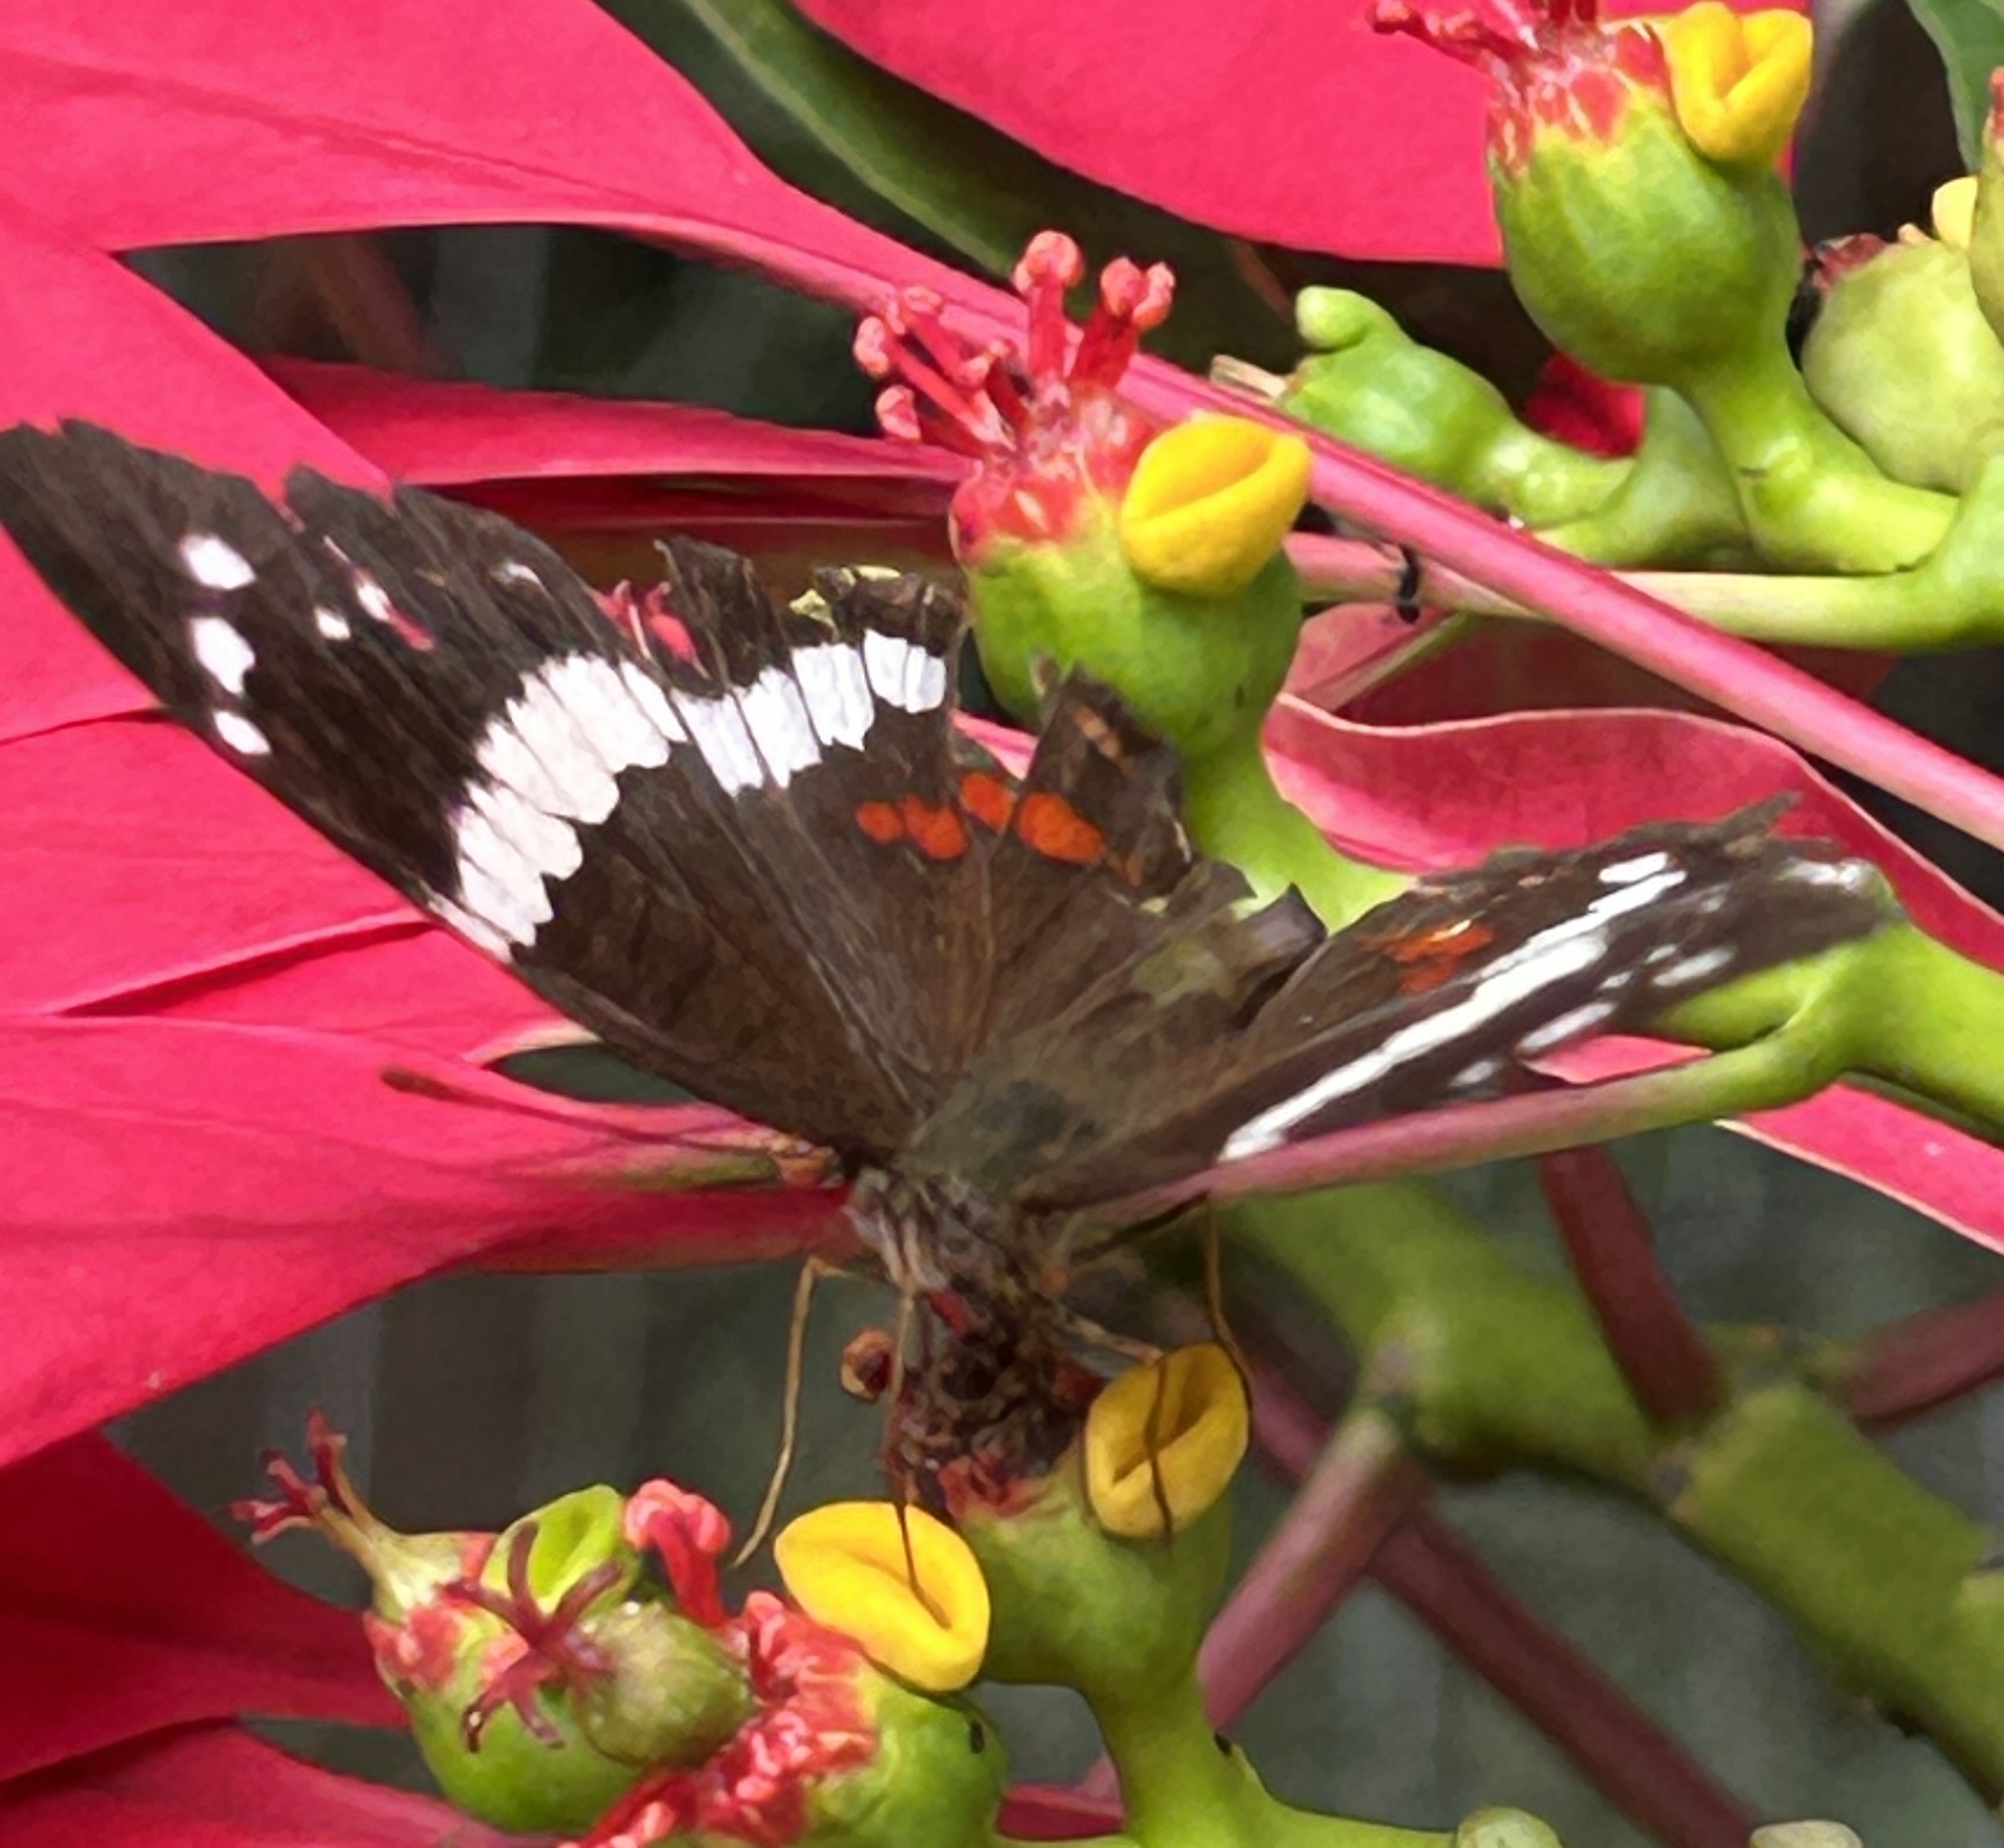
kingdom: Animalia
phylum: Arthropoda
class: Insecta
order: Lepidoptera
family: Nymphalidae
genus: Anartia
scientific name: Anartia fatima
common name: Banded peacock
